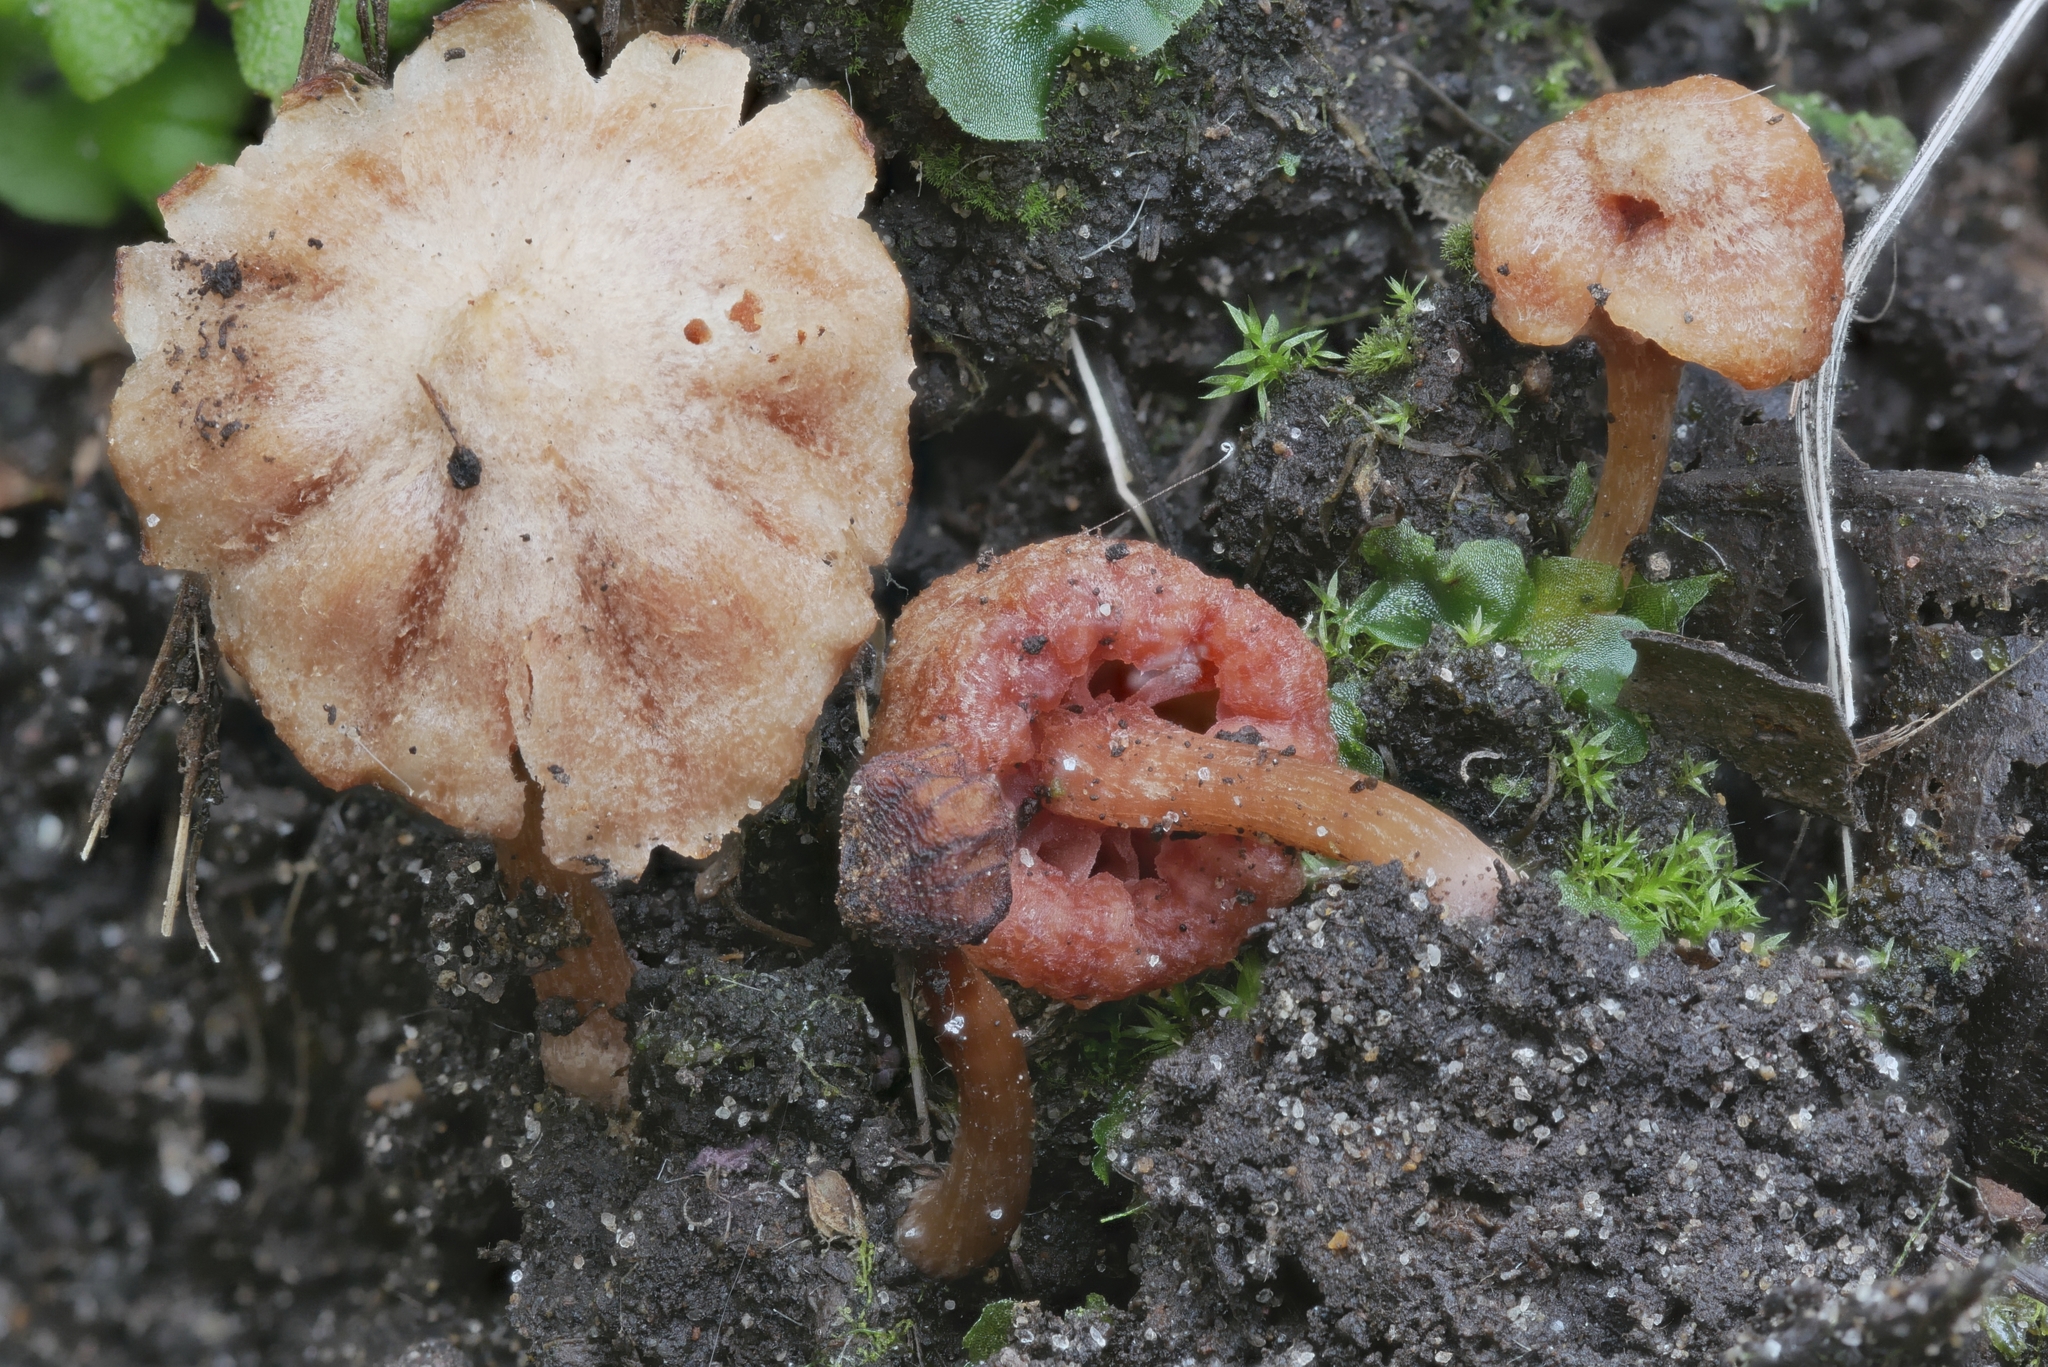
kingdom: Fungi
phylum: Basidiomycota
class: Agaricomycetes
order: Agaricales
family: Hydnangiaceae
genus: Laccaria
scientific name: Laccaria laccata
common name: Deceiver
